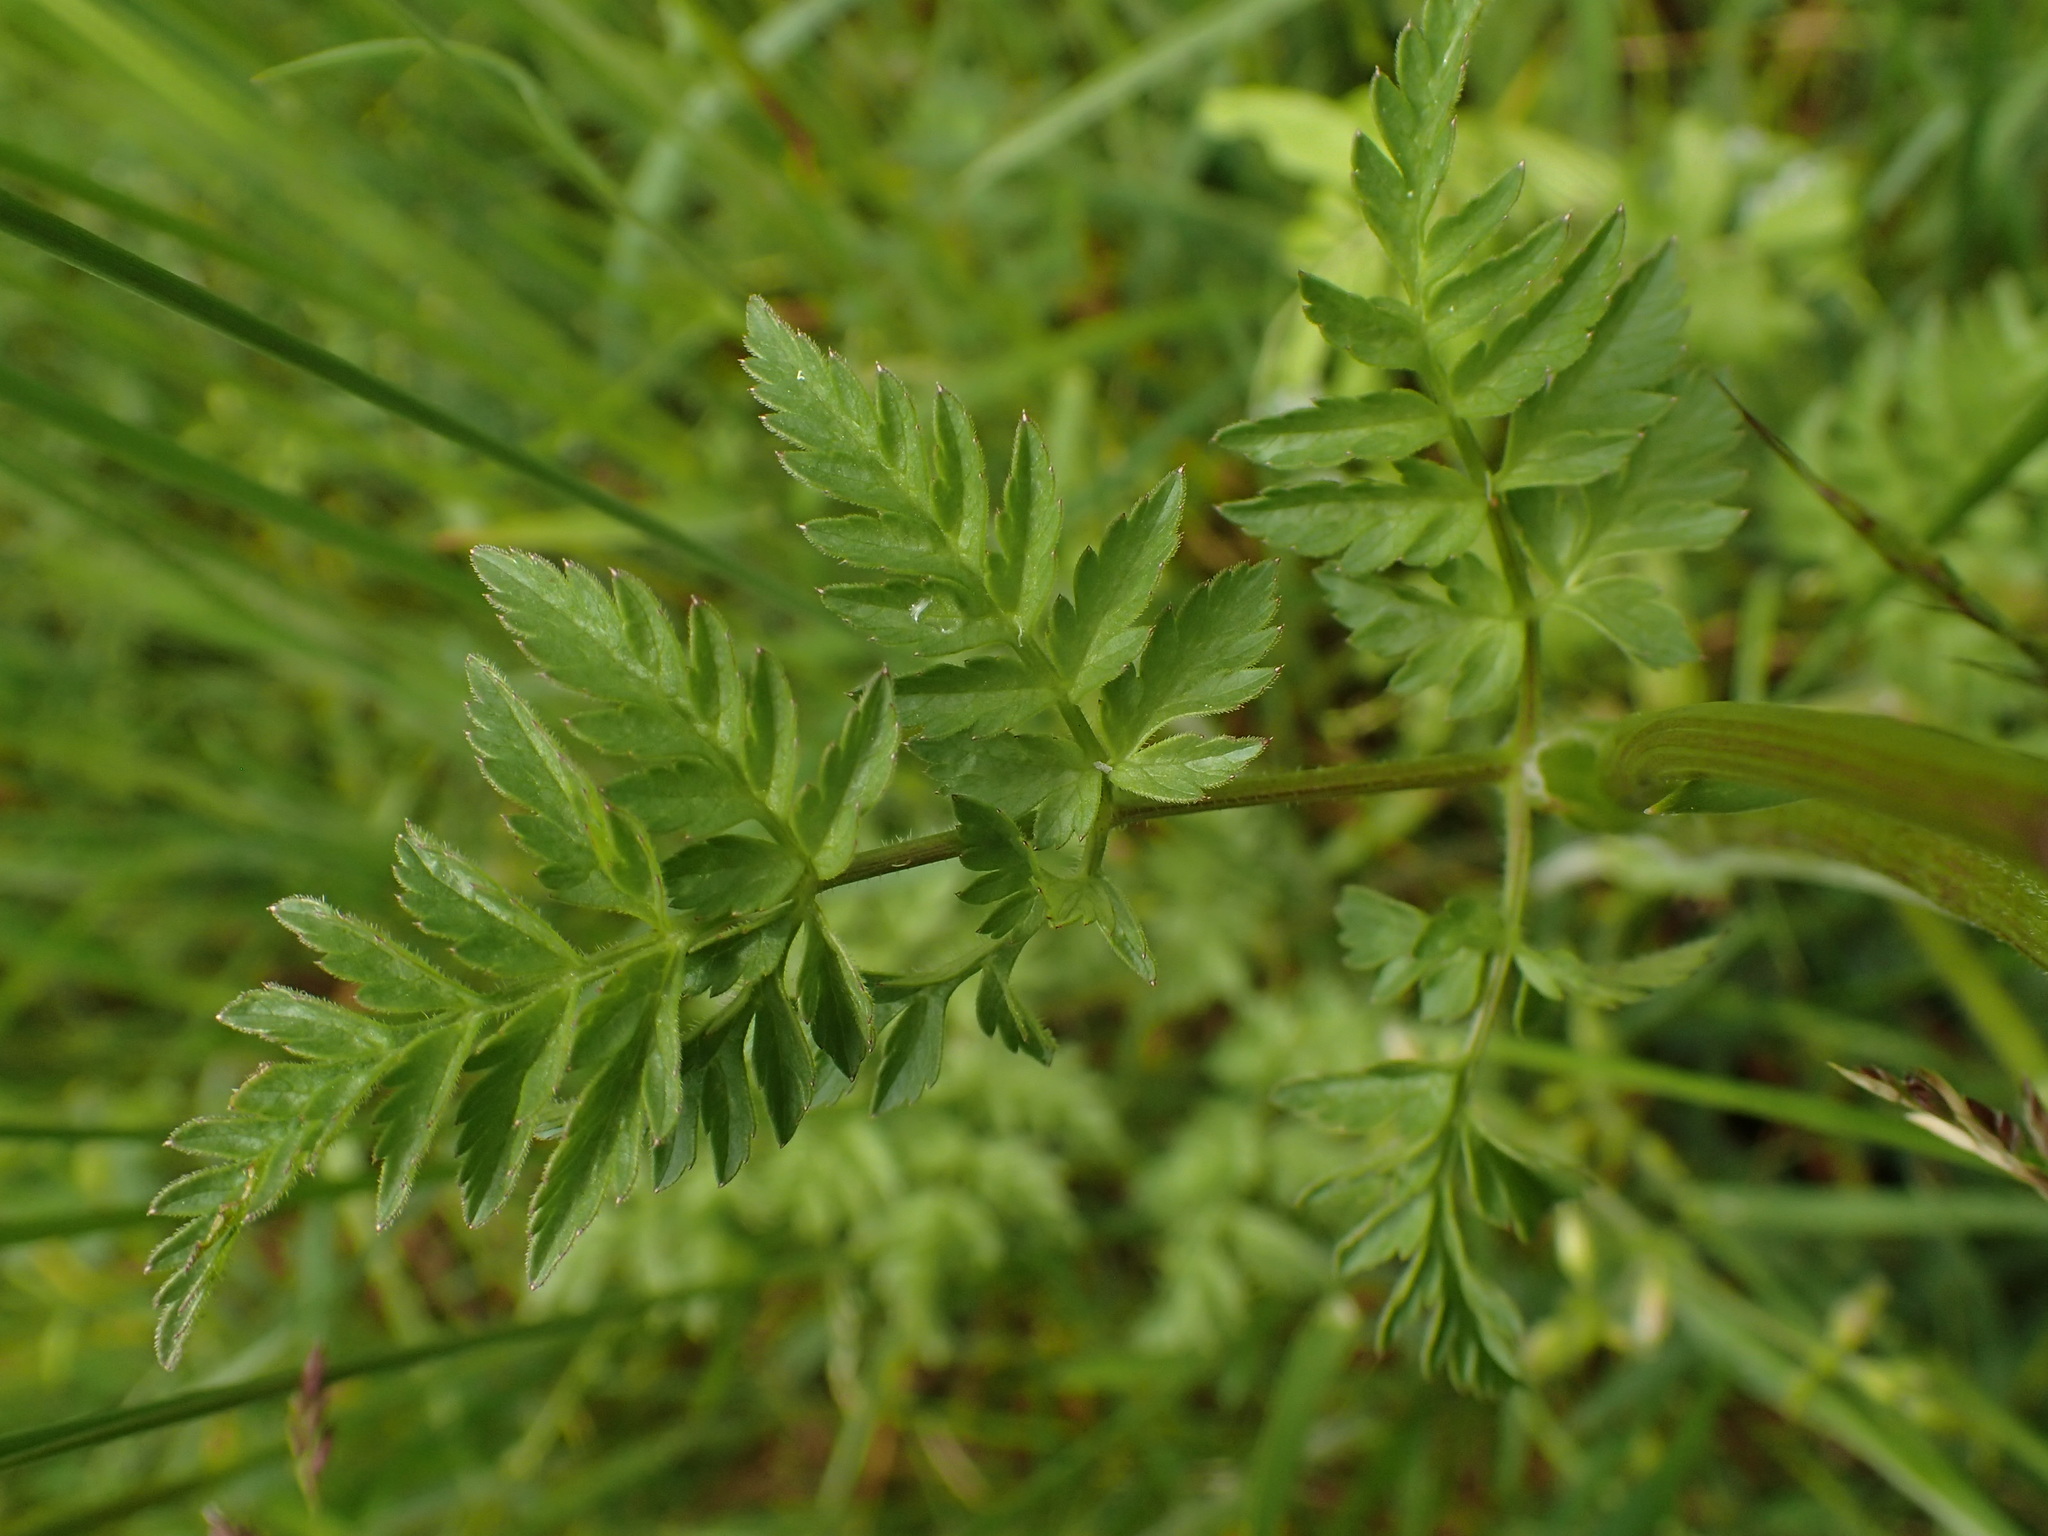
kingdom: Plantae
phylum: Tracheophyta
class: Magnoliopsida
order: Apiales
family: Apiaceae
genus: Anthriscus
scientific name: Anthriscus sylvestris
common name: Cow parsley
